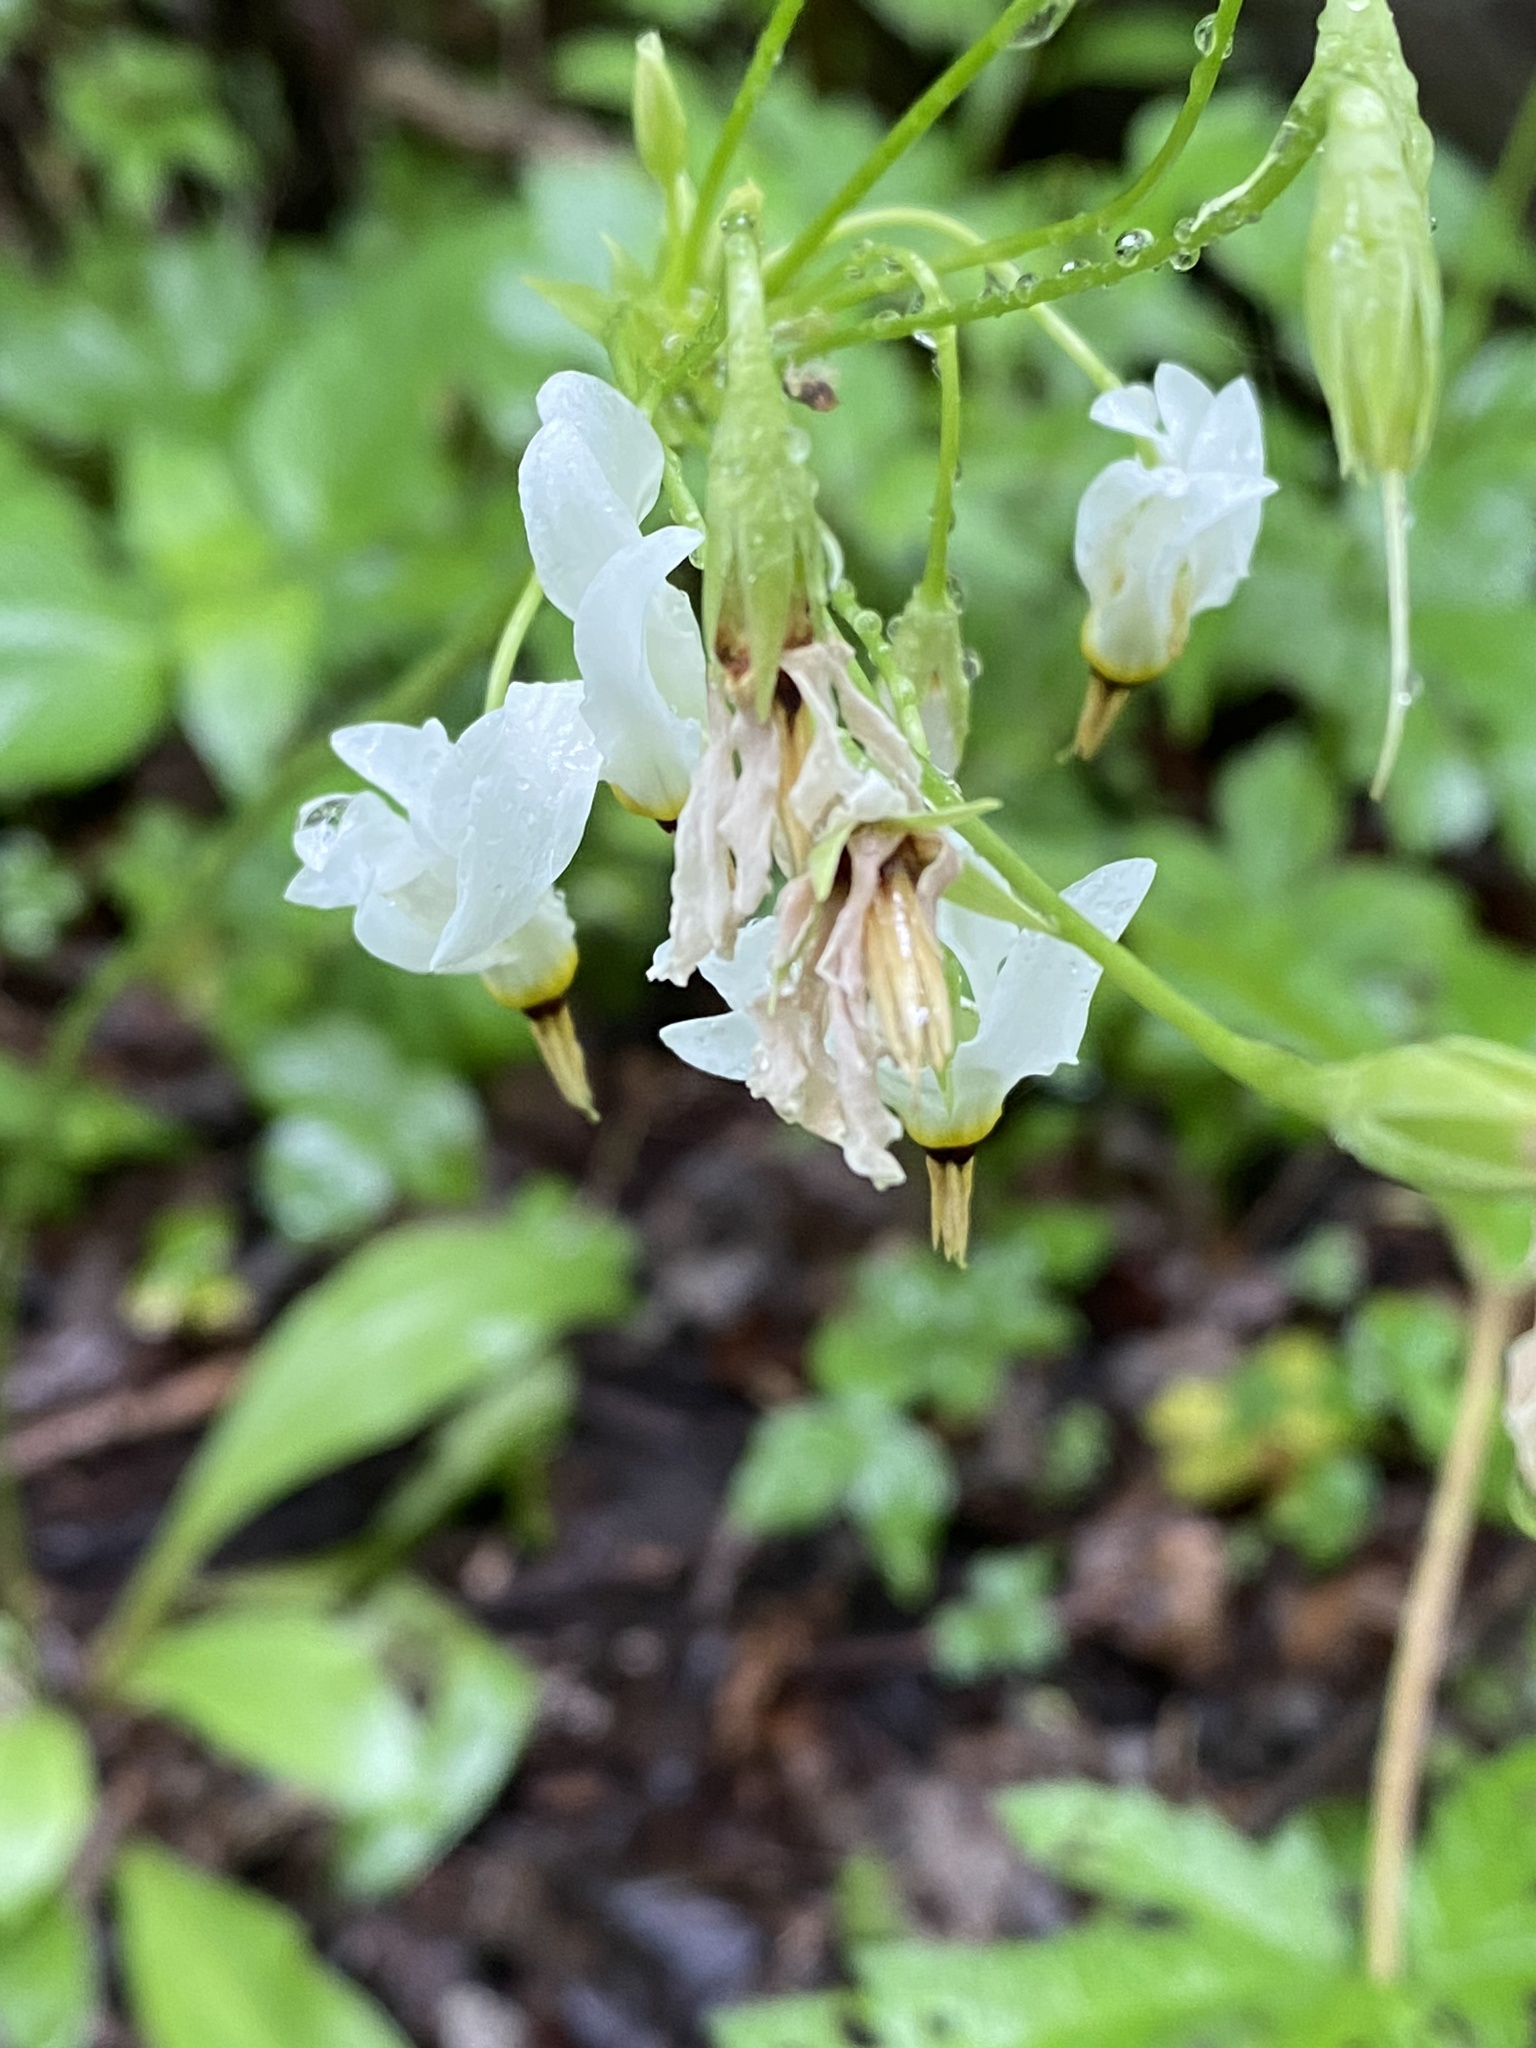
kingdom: Plantae
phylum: Tracheophyta
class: Magnoliopsida
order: Ericales
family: Primulaceae
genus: Dodecatheon
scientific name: Dodecatheon meadia
